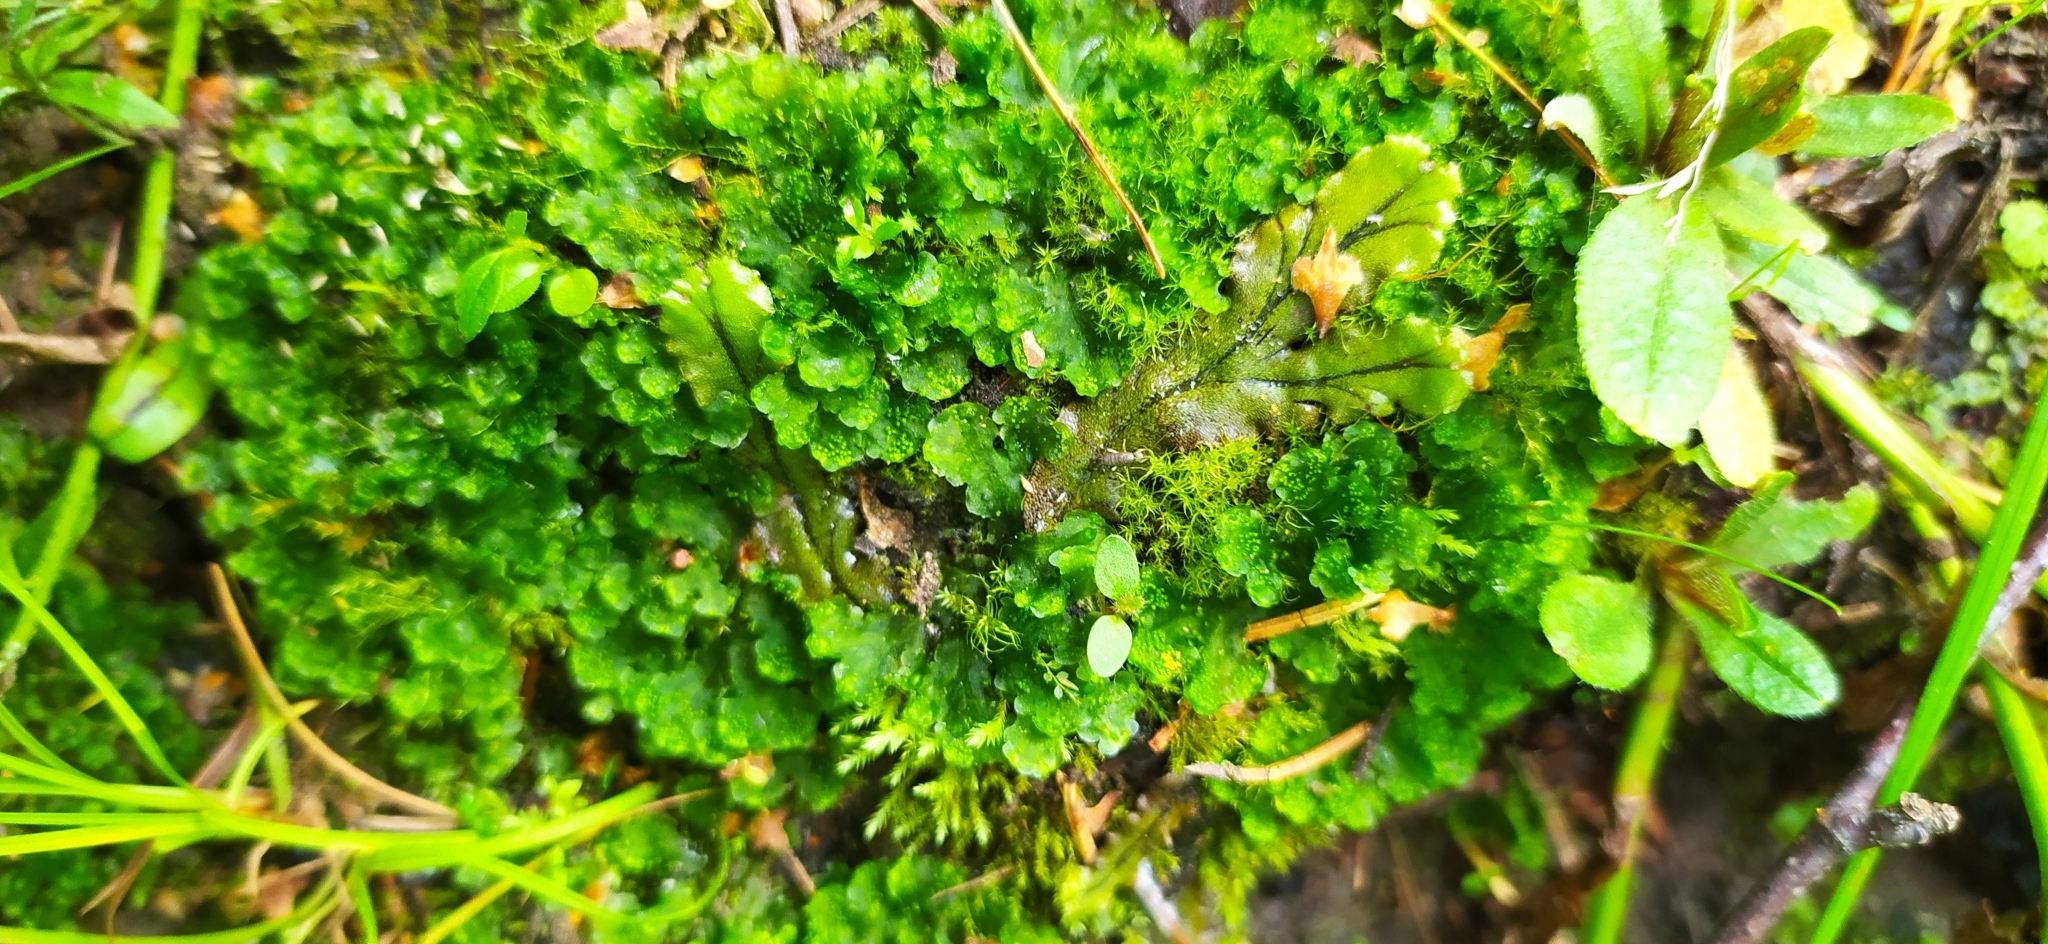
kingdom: Plantae
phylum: Marchantiophyta
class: Marchantiopsida
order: Blasiales
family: Blasiaceae
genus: Blasia
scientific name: Blasia pusilla
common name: Common kettlewort
